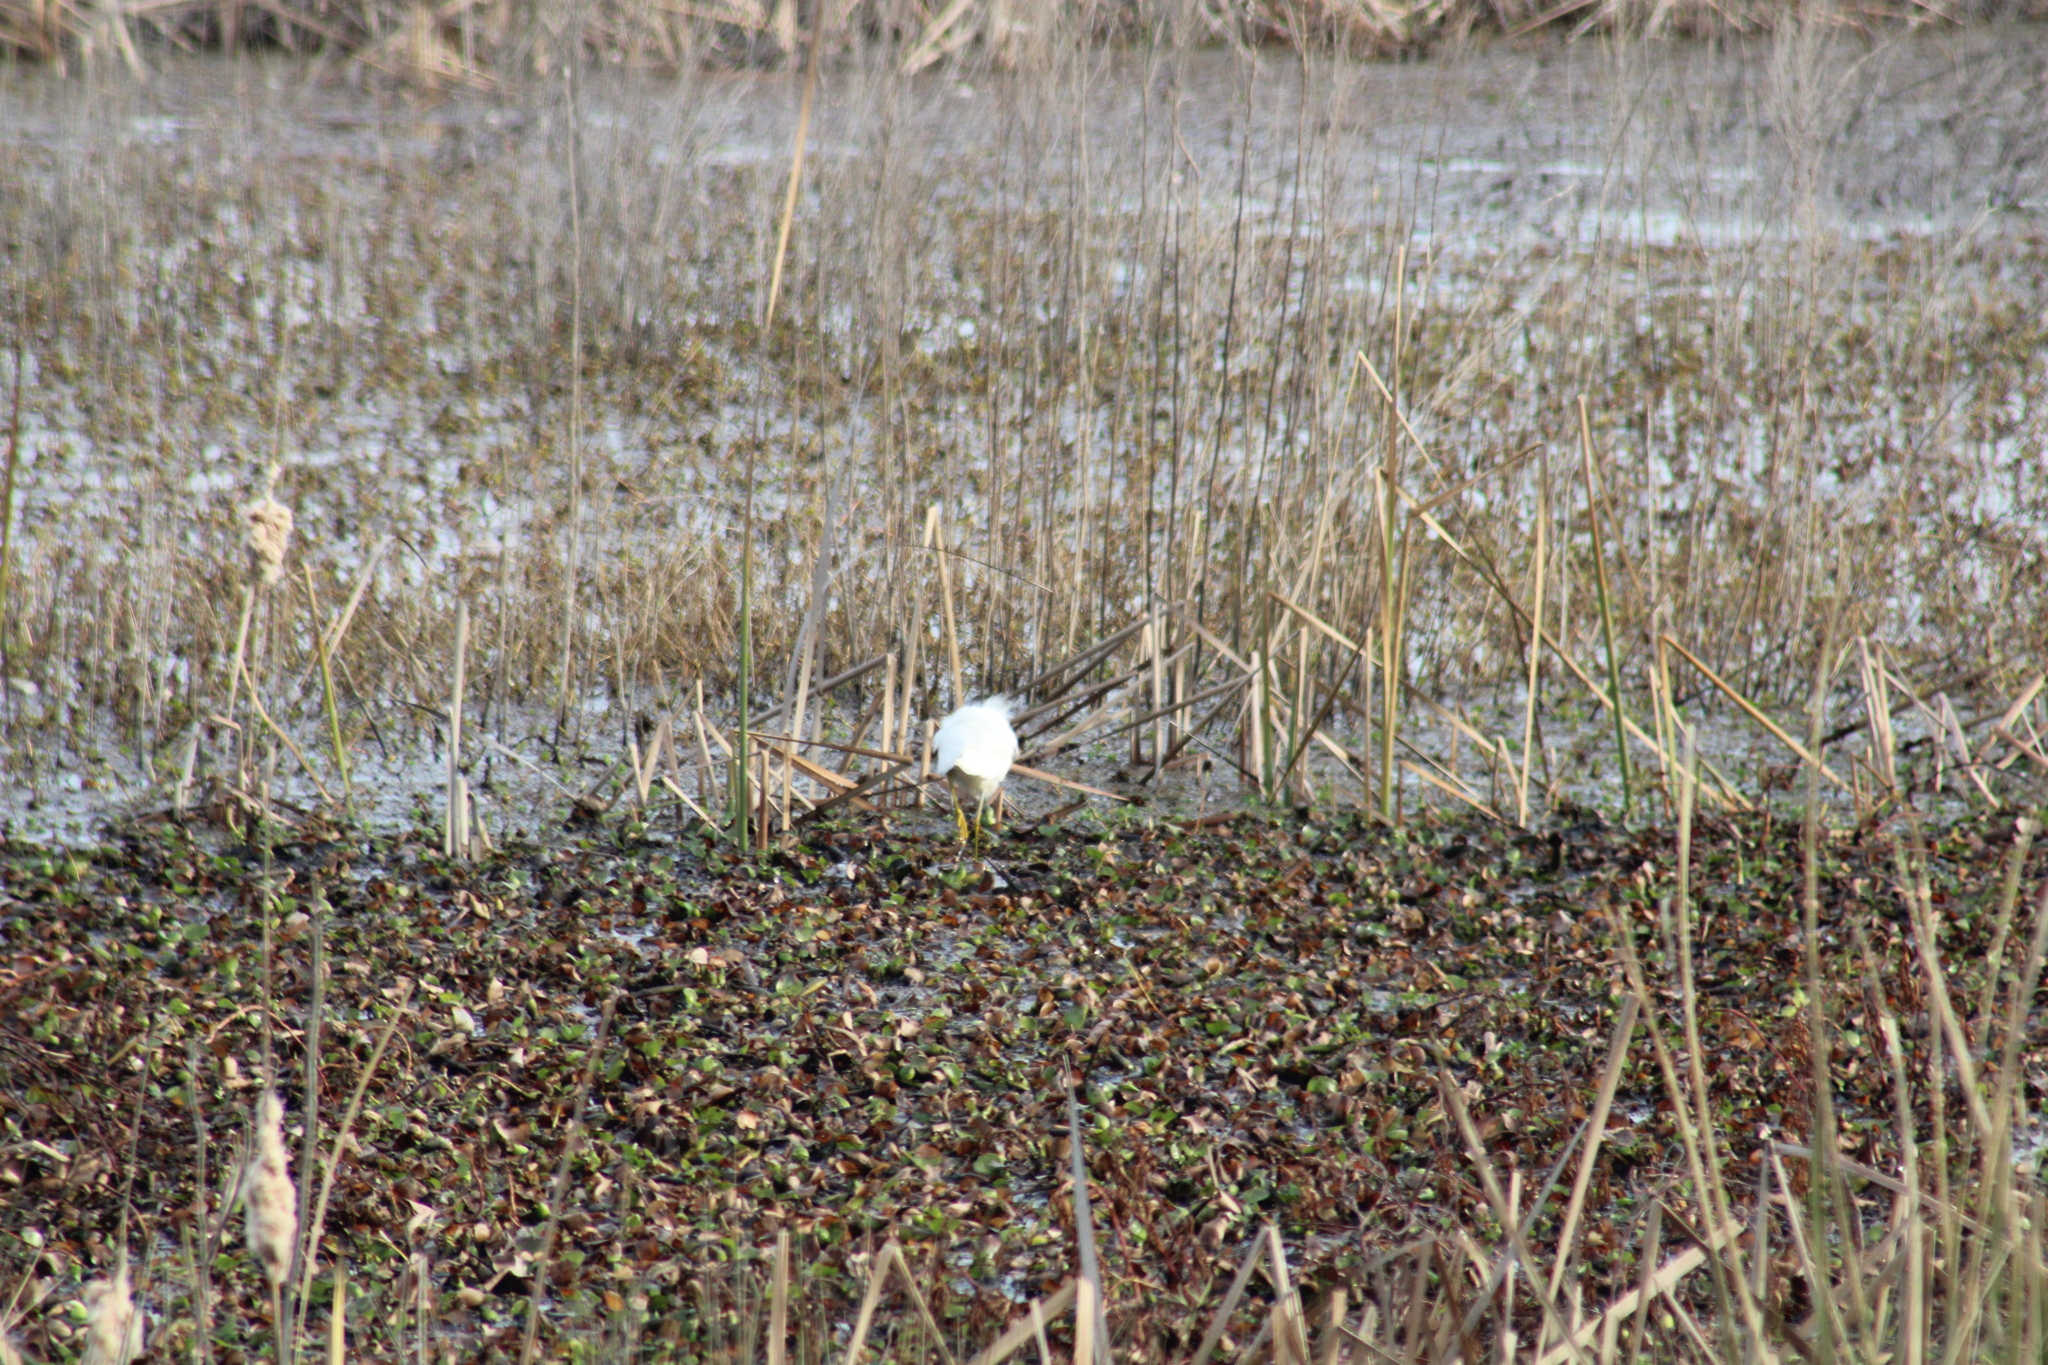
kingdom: Animalia
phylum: Chordata
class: Aves
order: Pelecaniformes
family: Ardeidae
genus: Egretta
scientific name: Egretta thula
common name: Snowy egret
